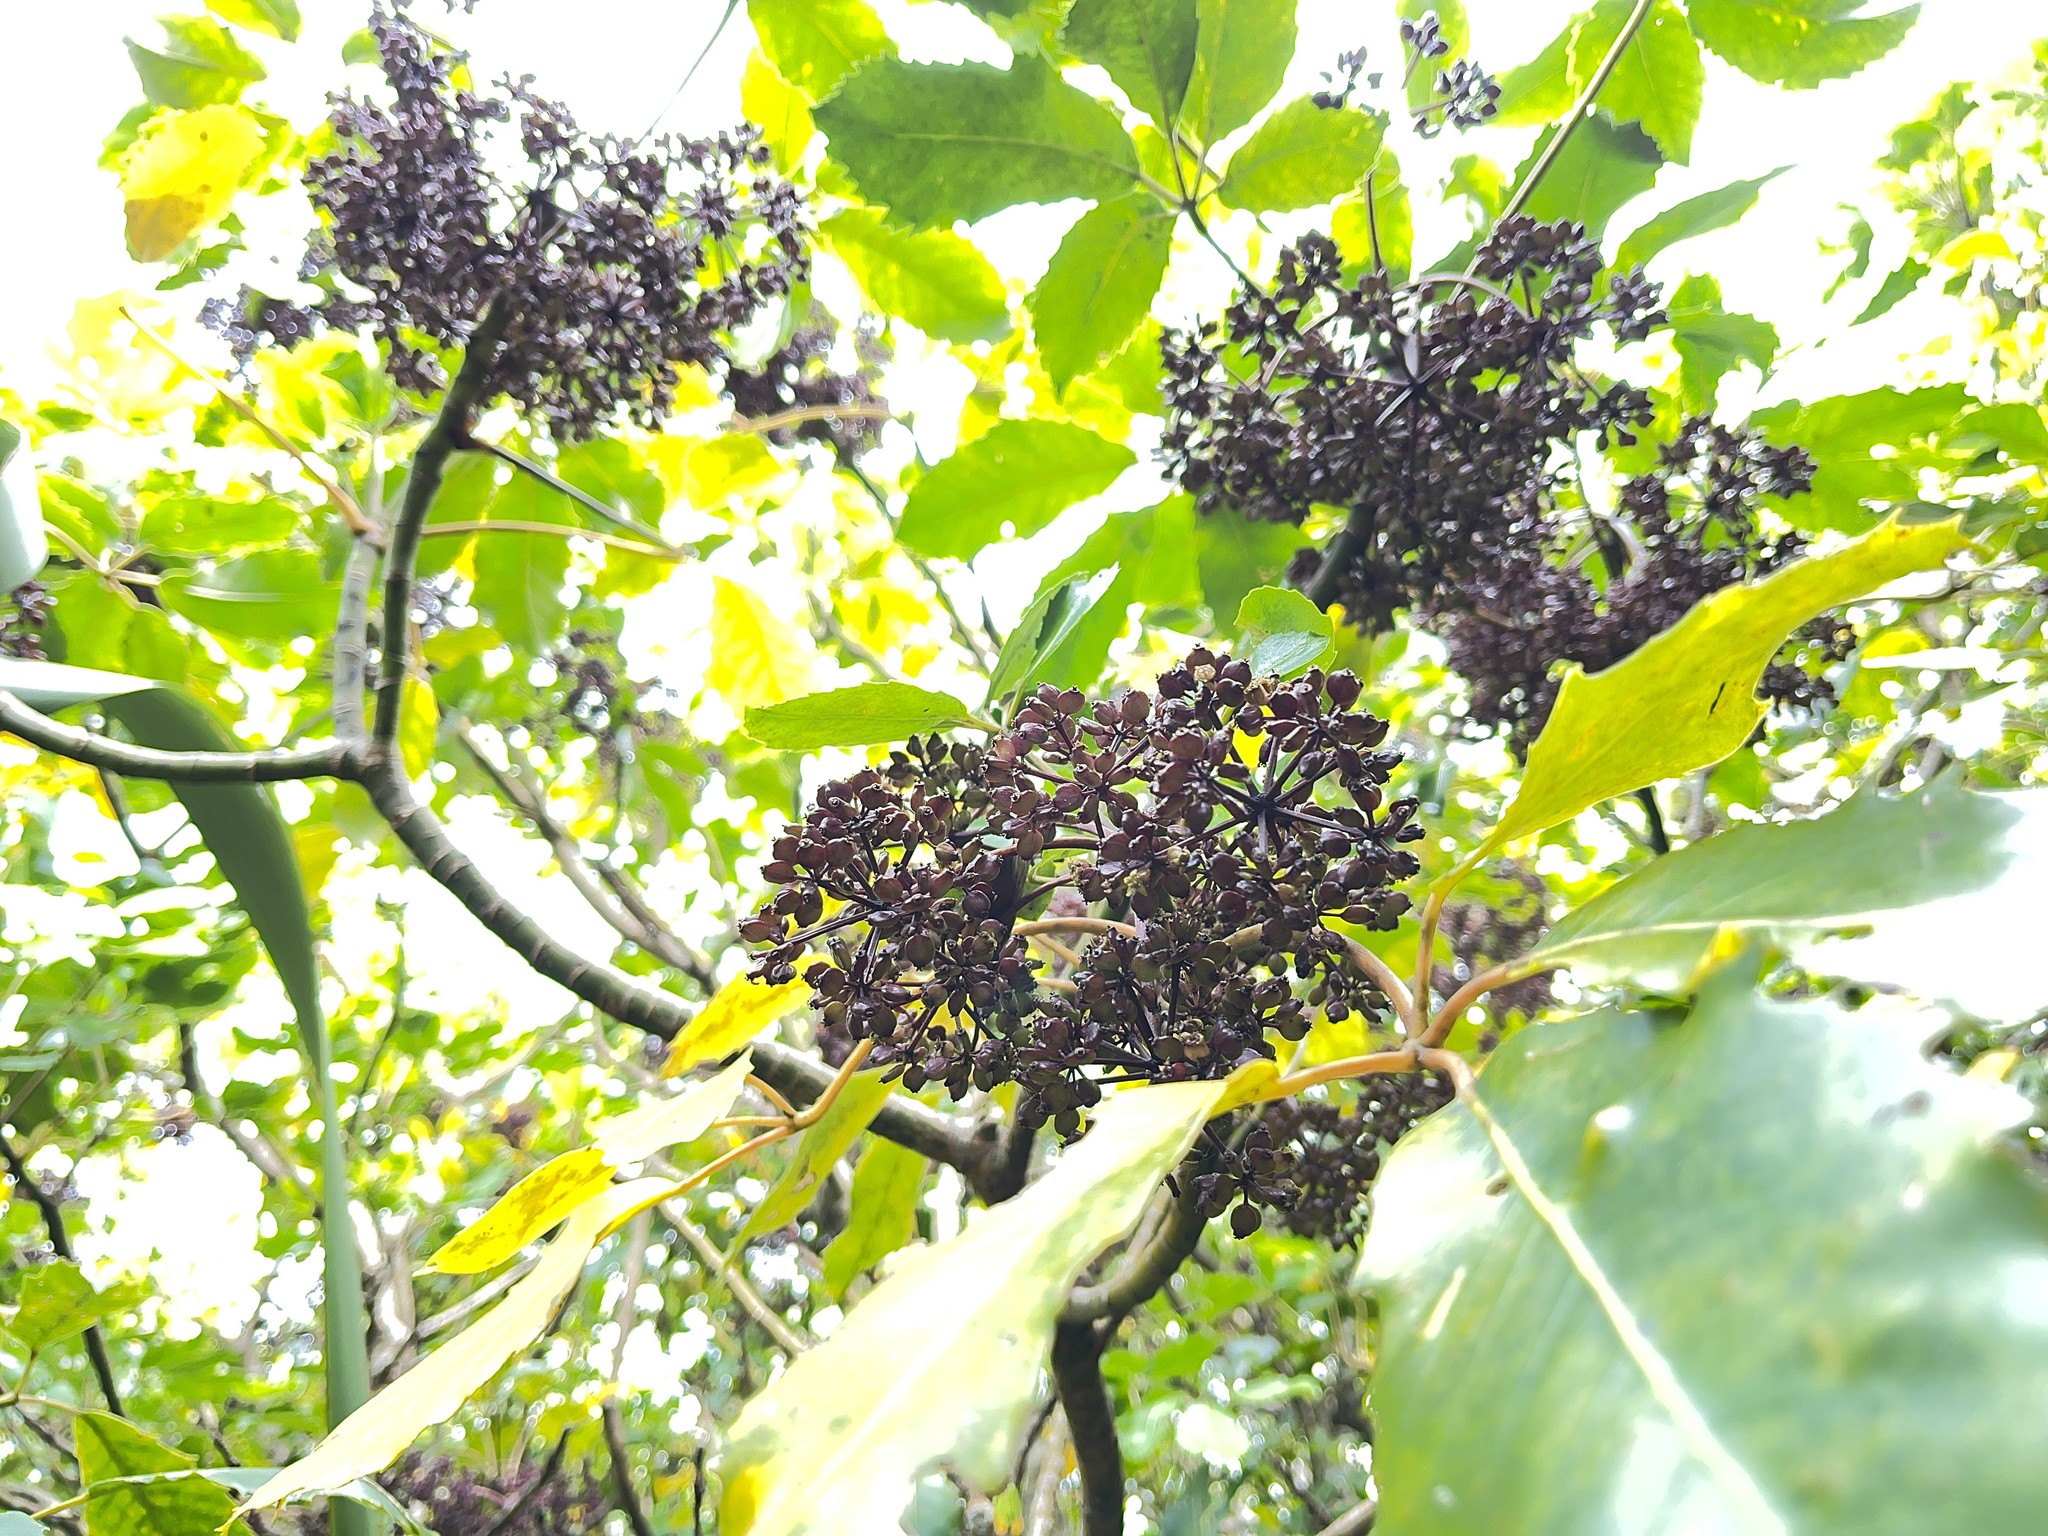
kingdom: Plantae
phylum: Tracheophyta
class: Magnoliopsida
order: Apiales
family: Araliaceae
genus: Neopanax
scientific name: Neopanax arboreus
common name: Five-fingers
